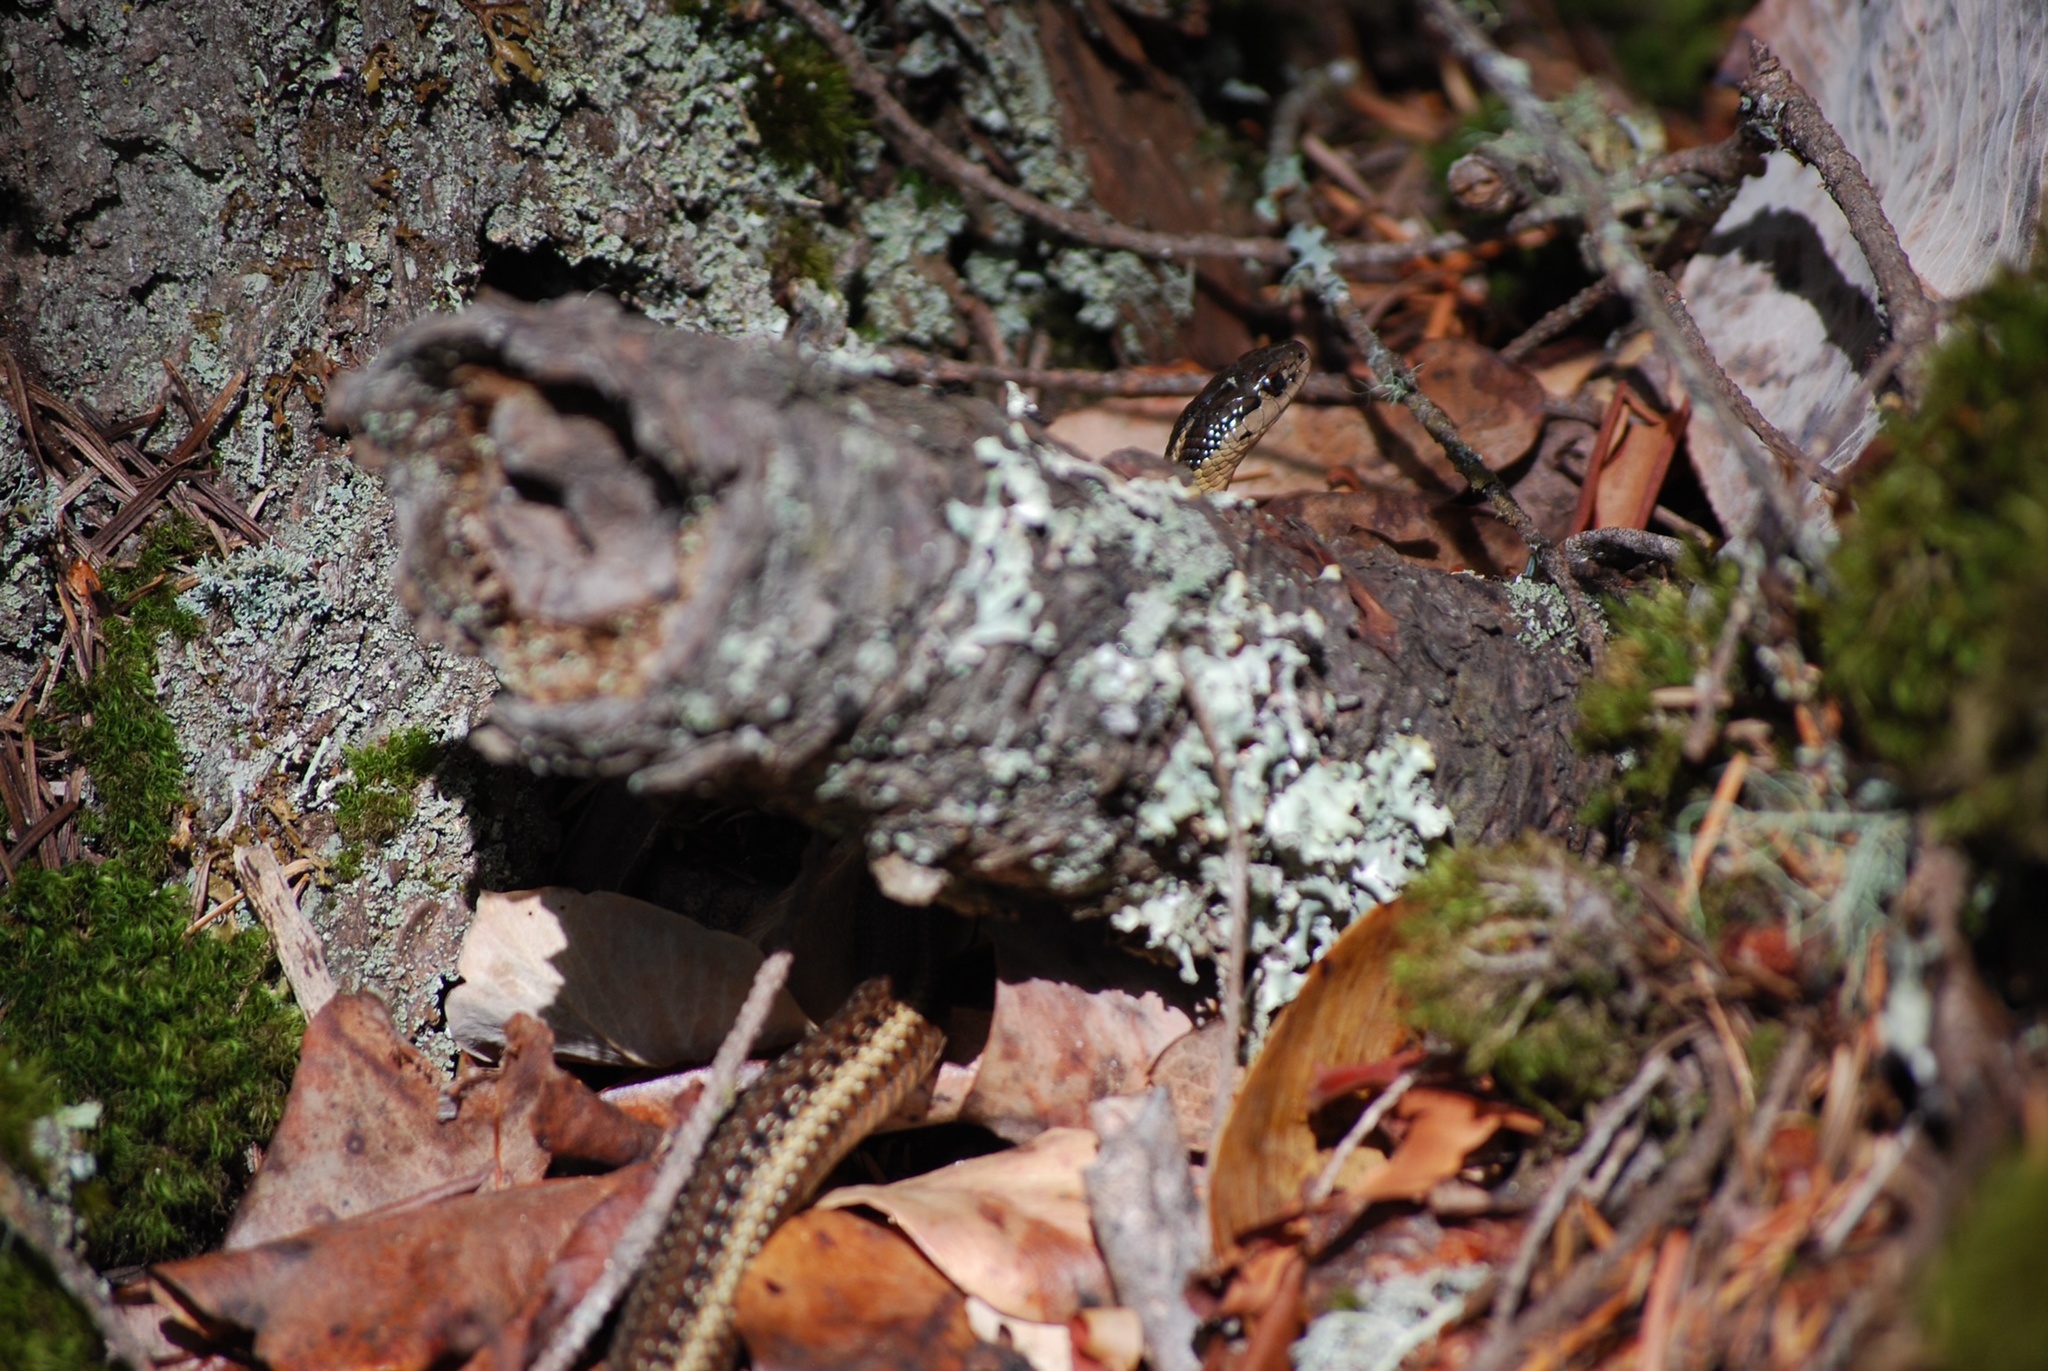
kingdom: Animalia
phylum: Chordata
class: Squamata
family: Colubridae
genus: Thamnophis
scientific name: Thamnophis ordinoides
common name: Northwestern garter snake
